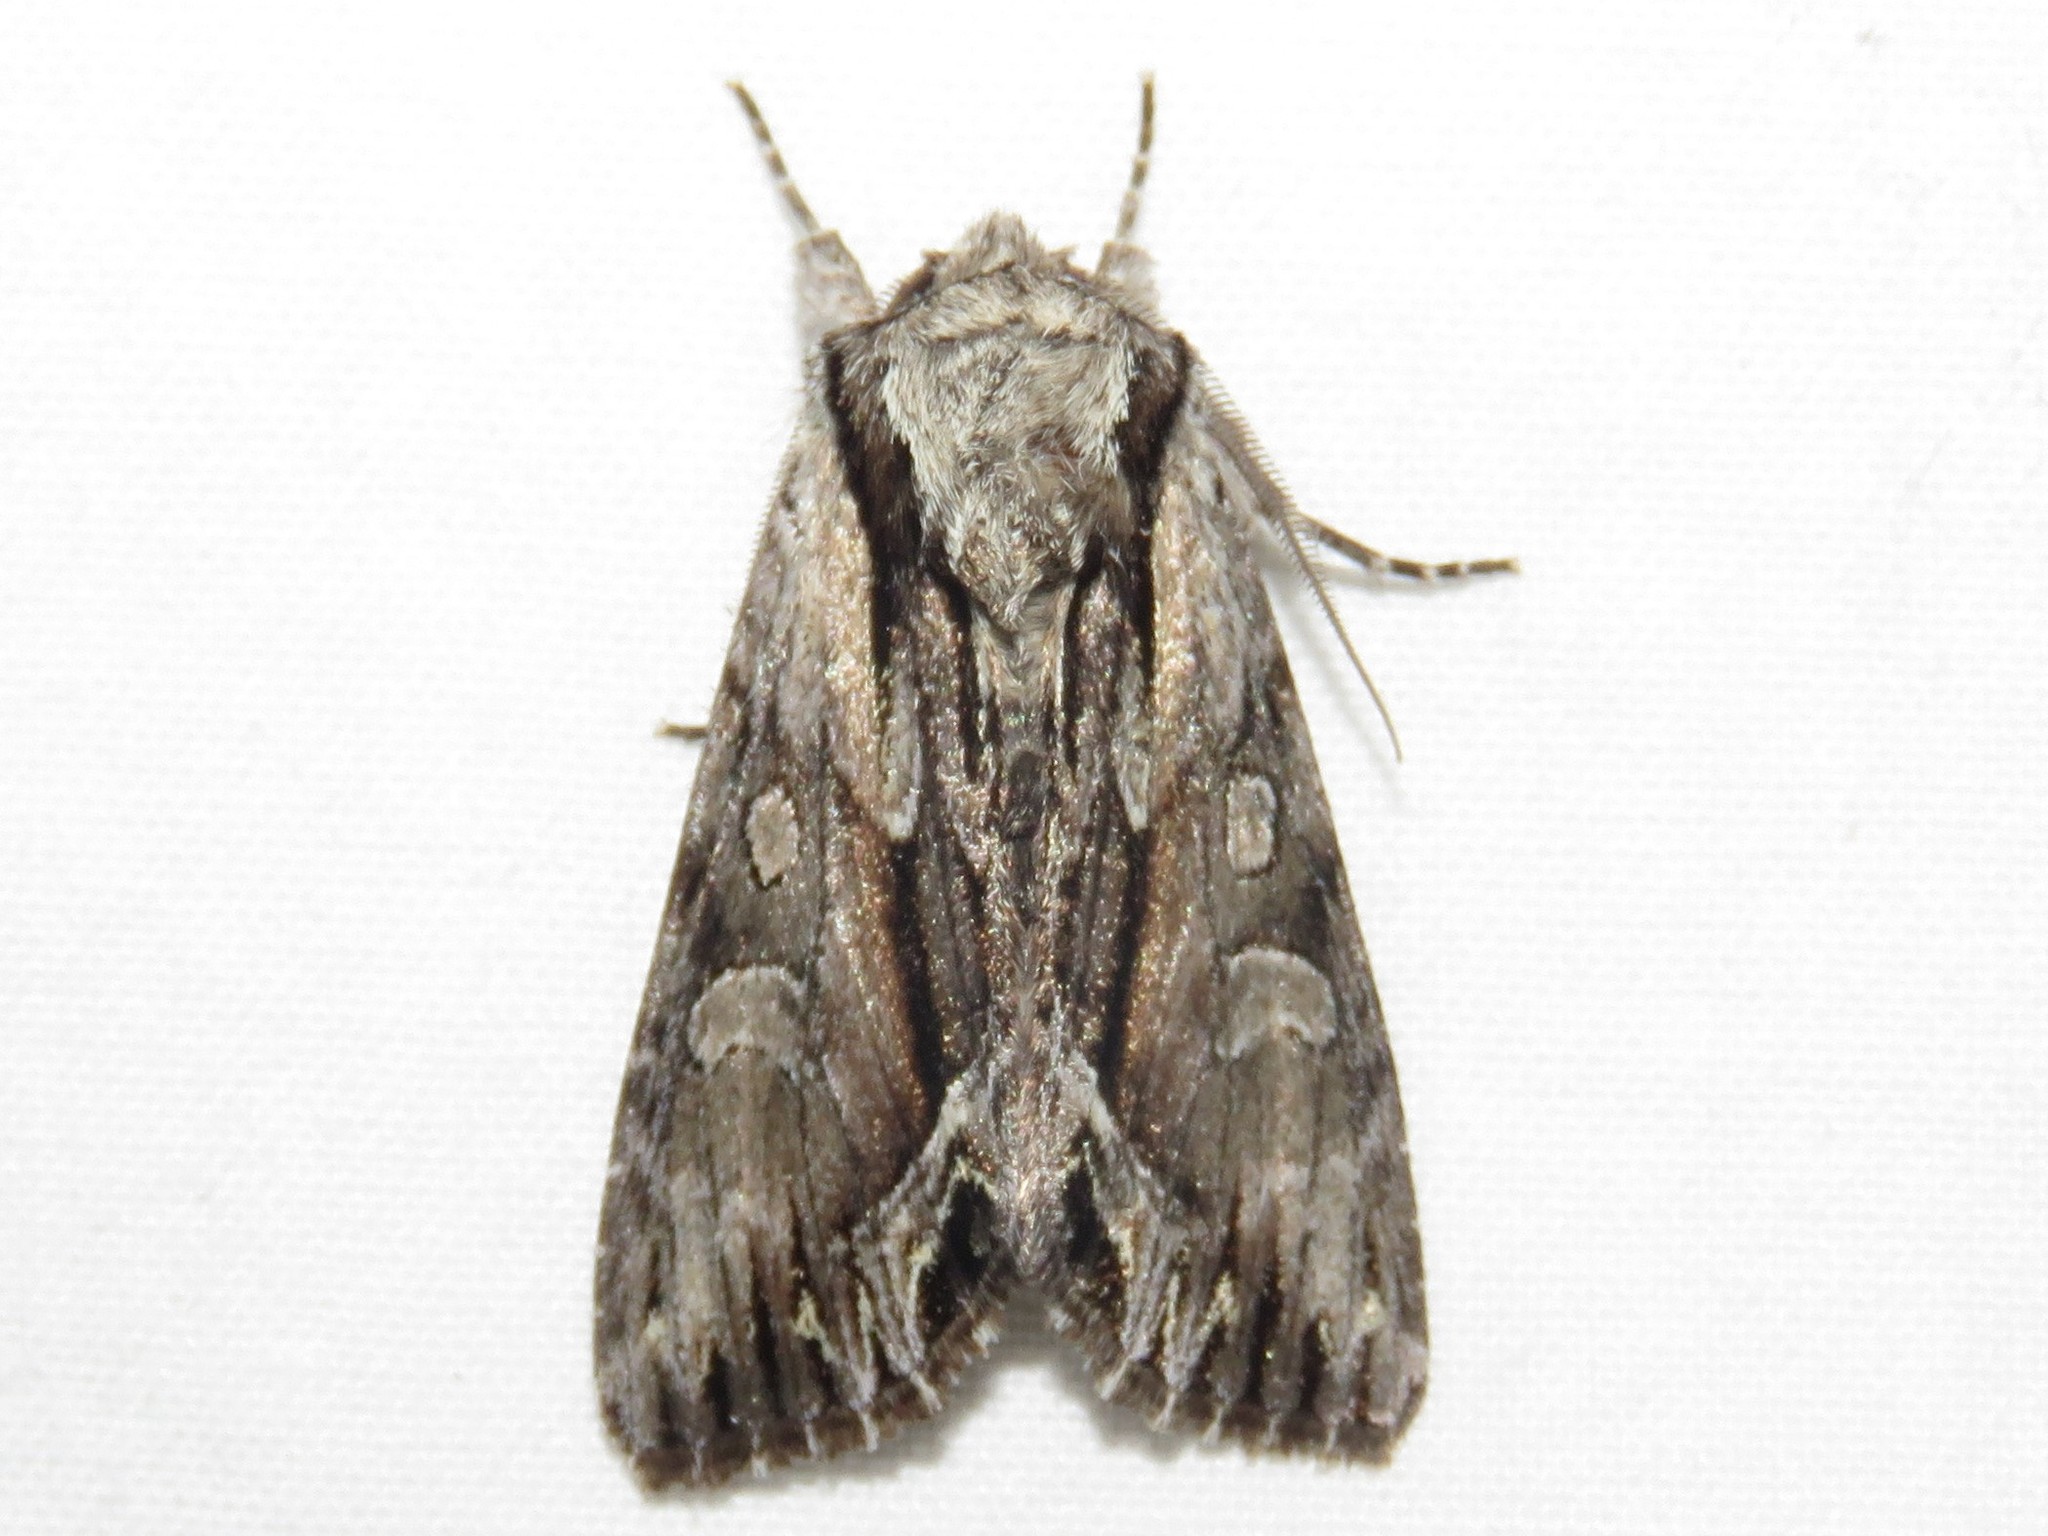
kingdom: Animalia
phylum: Arthropoda
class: Insecta
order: Lepidoptera
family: Noctuidae
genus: Hyppa
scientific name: Hyppa xylinoides
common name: Common hyppa moth
